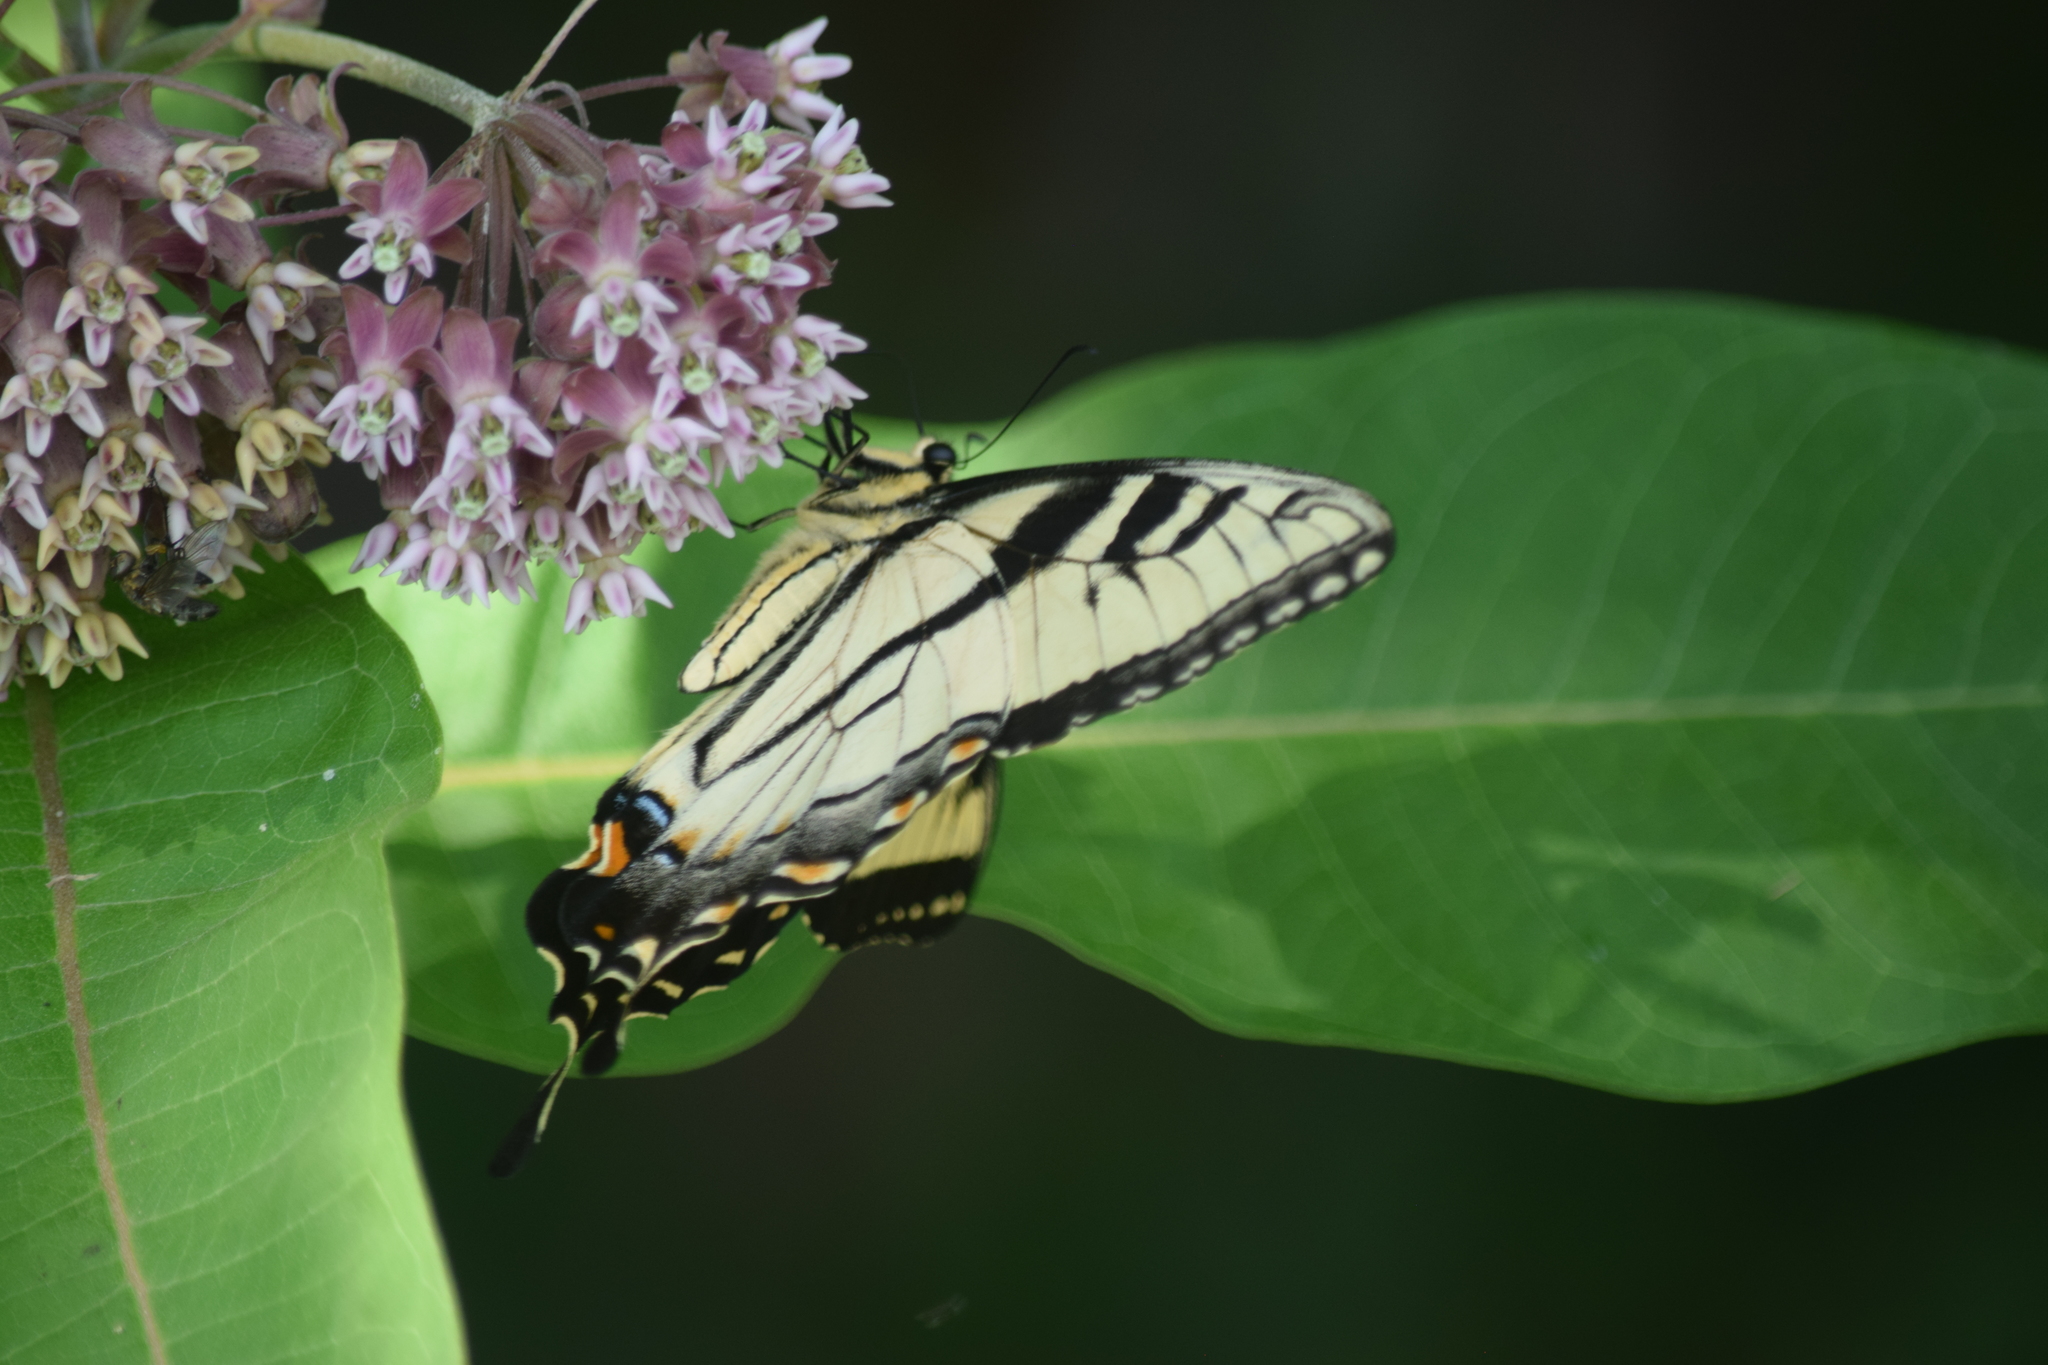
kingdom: Animalia
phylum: Arthropoda
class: Insecta
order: Lepidoptera
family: Papilionidae
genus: Papilio
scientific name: Papilio glaucus
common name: Tiger swallowtail
